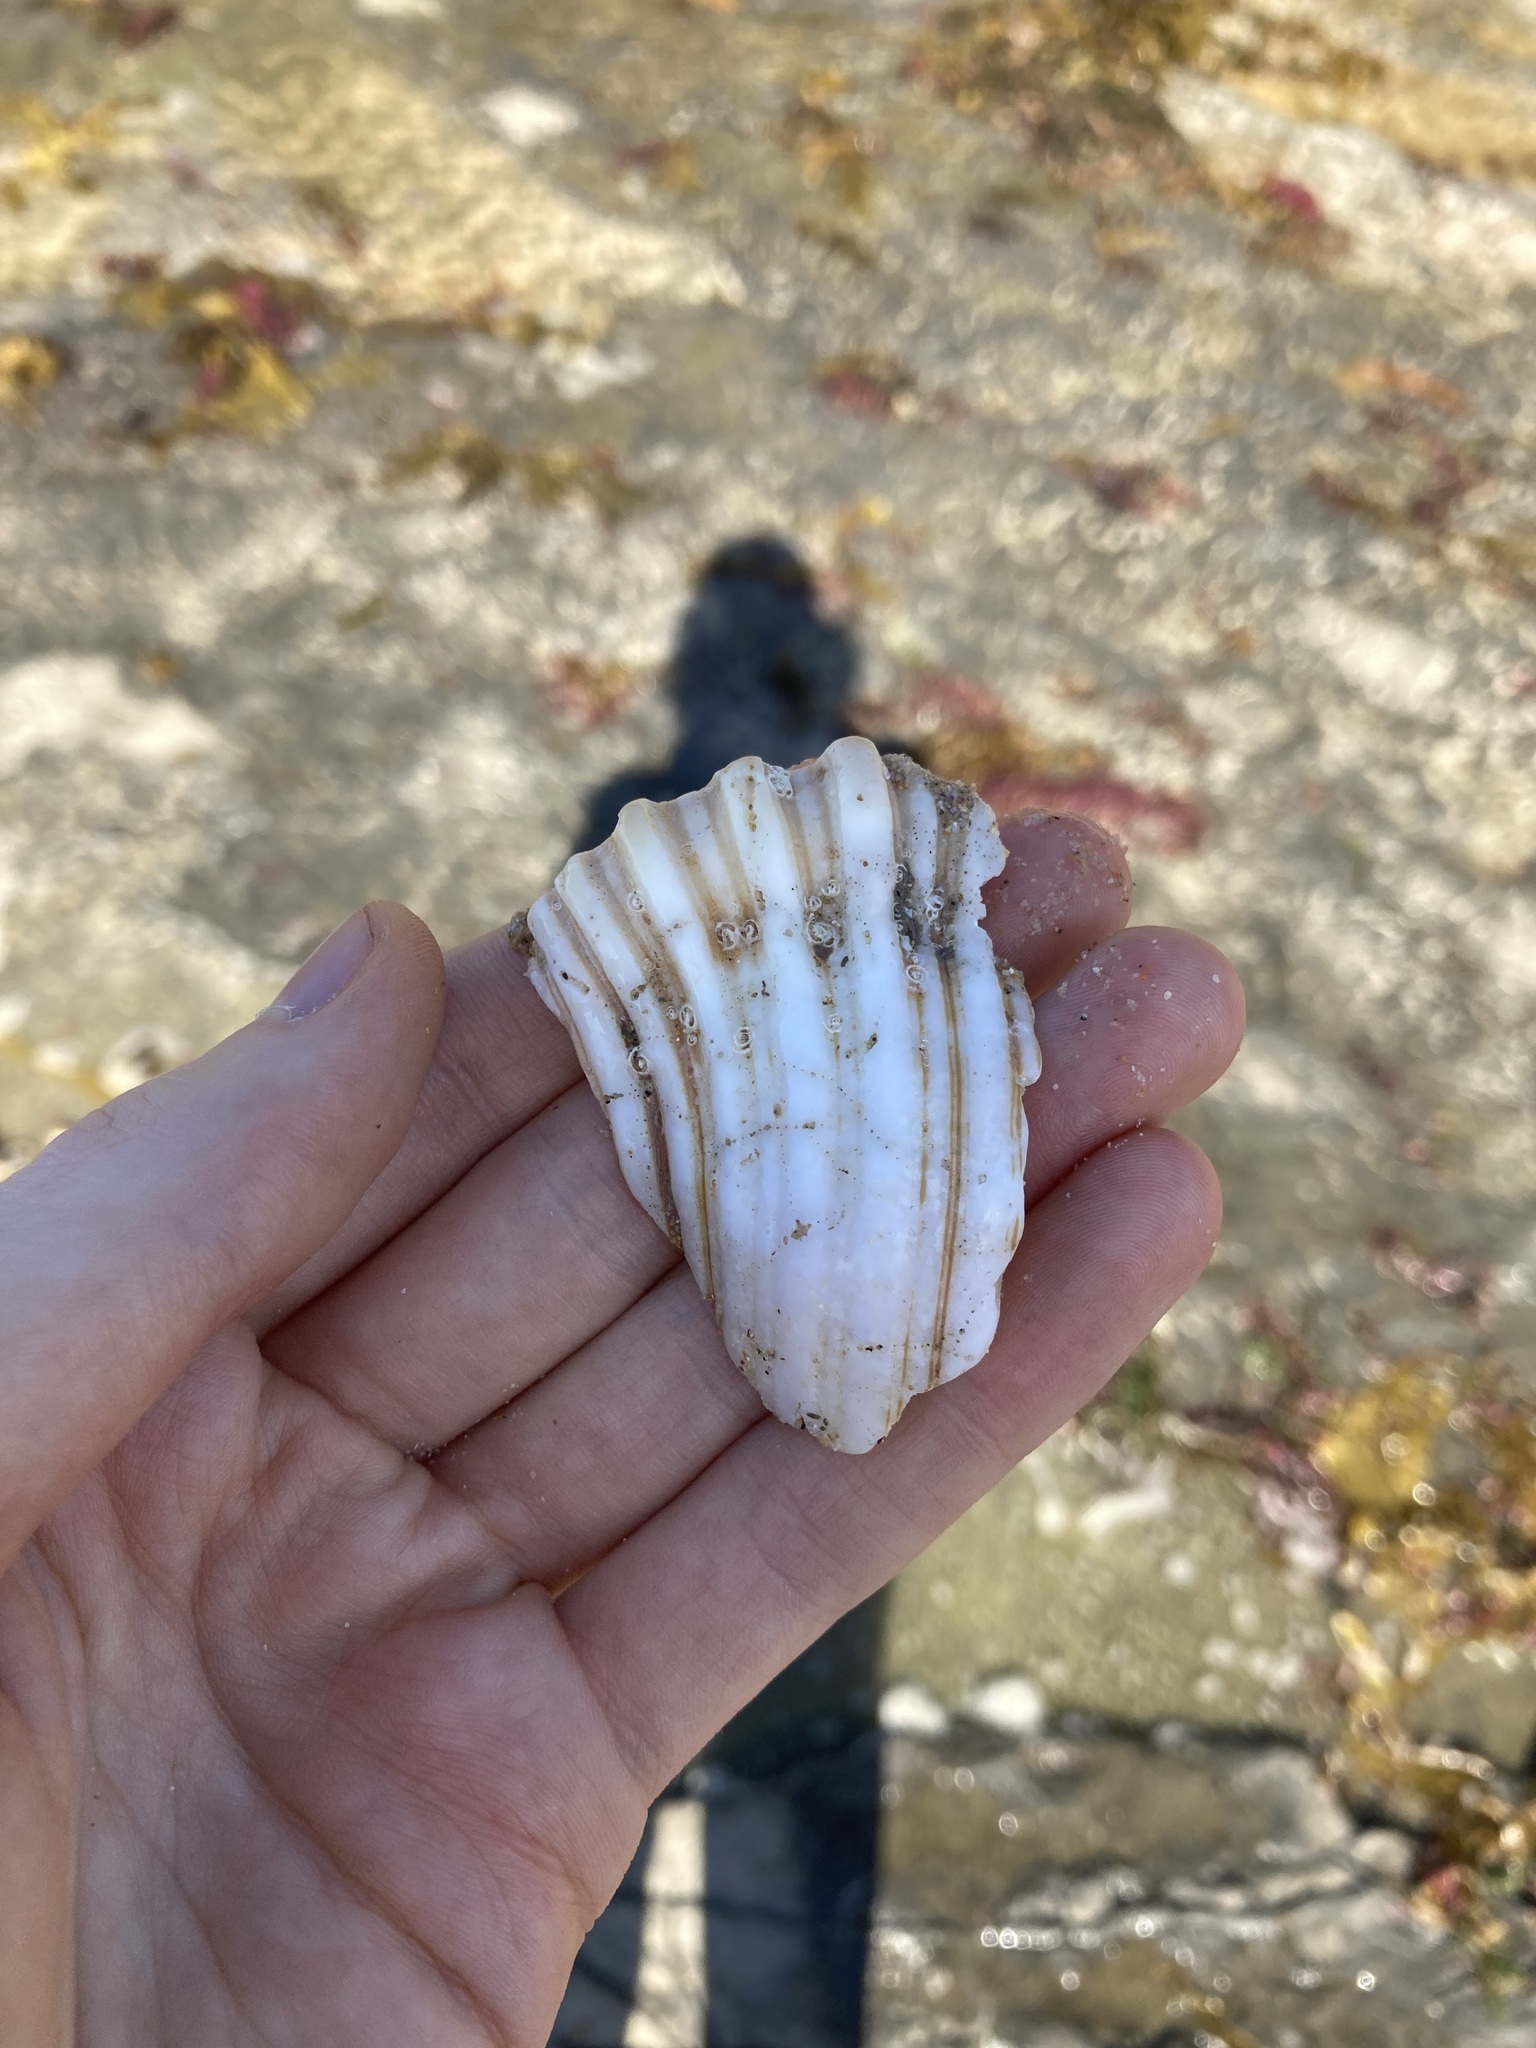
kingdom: Animalia
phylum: Mollusca
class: Gastropoda
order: Littorinimorpha
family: Cymatiidae
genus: Cabestana
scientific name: Cabestana spengleri
